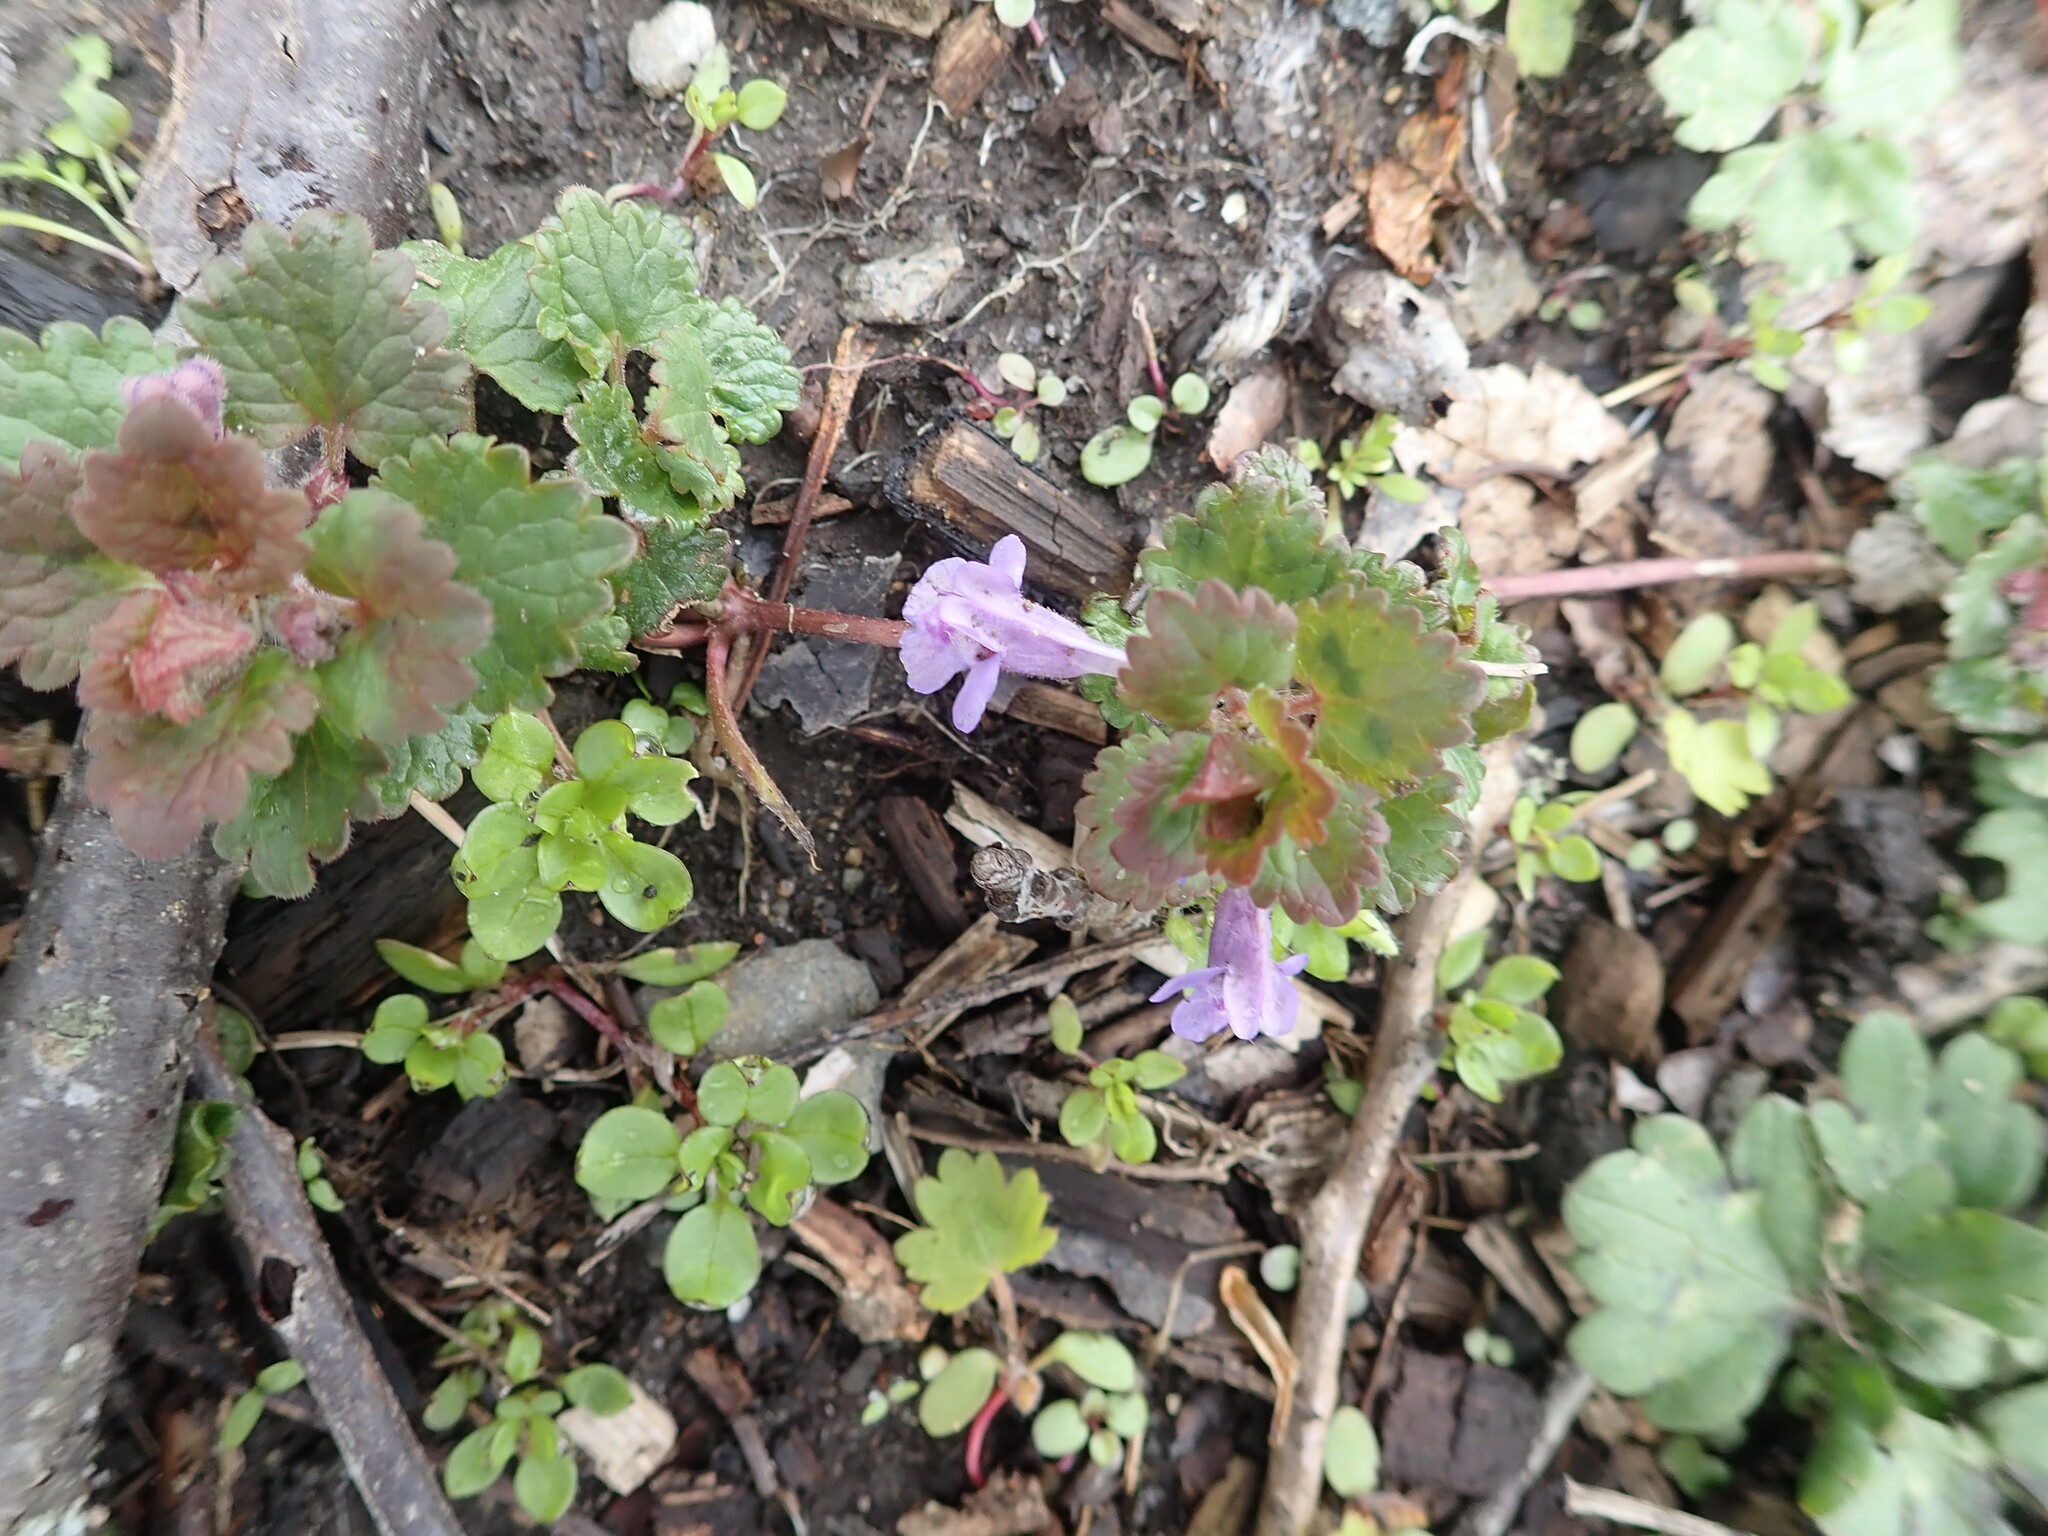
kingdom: Plantae
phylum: Tracheophyta
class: Magnoliopsida
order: Lamiales
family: Lamiaceae
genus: Glechoma
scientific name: Glechoma hederacea
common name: Ground ivy
